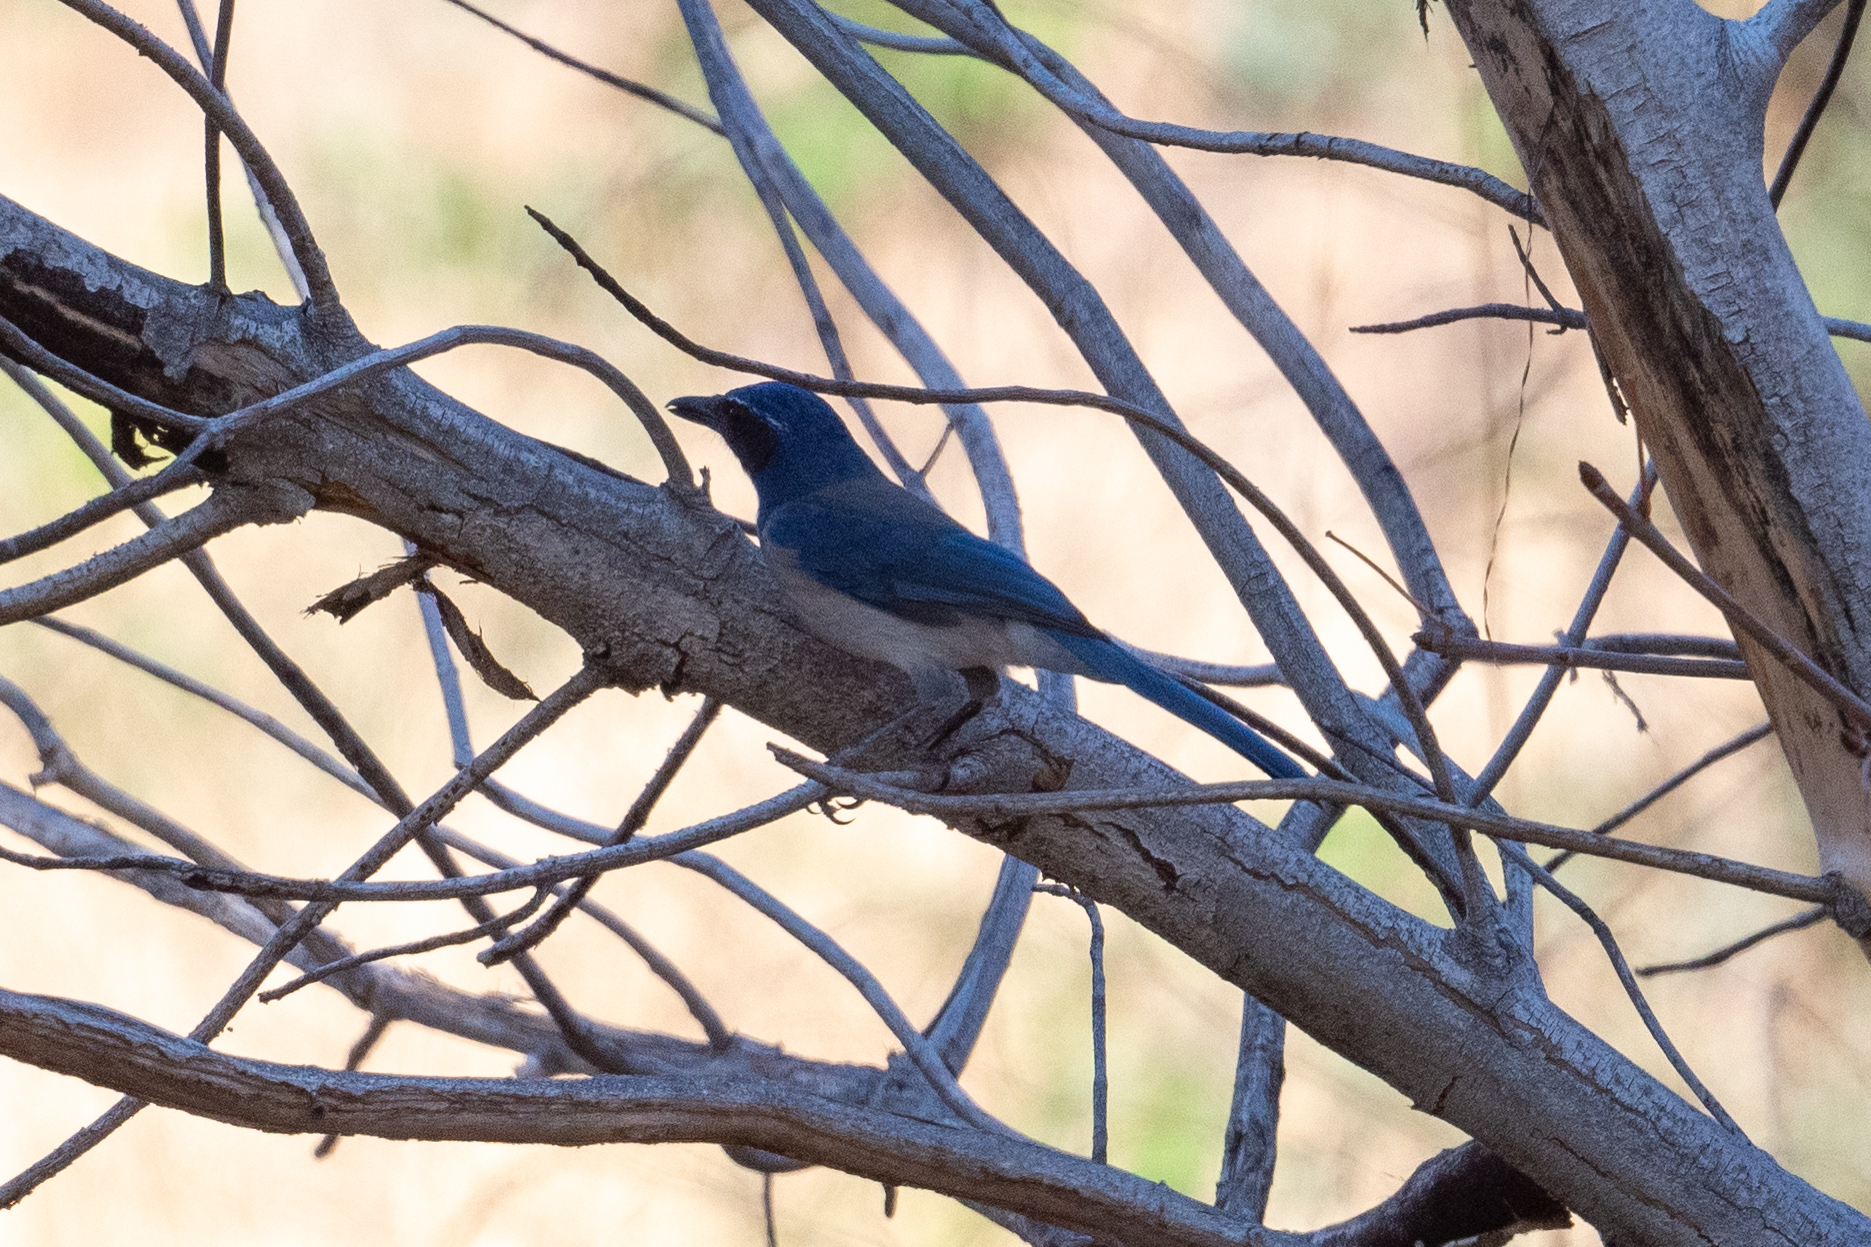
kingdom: Animalia
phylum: Chordata
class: Aves
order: Passeriformes
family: Corvidae
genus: Aphelocoma
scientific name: Aphelocoma californica
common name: California scrub-jay
